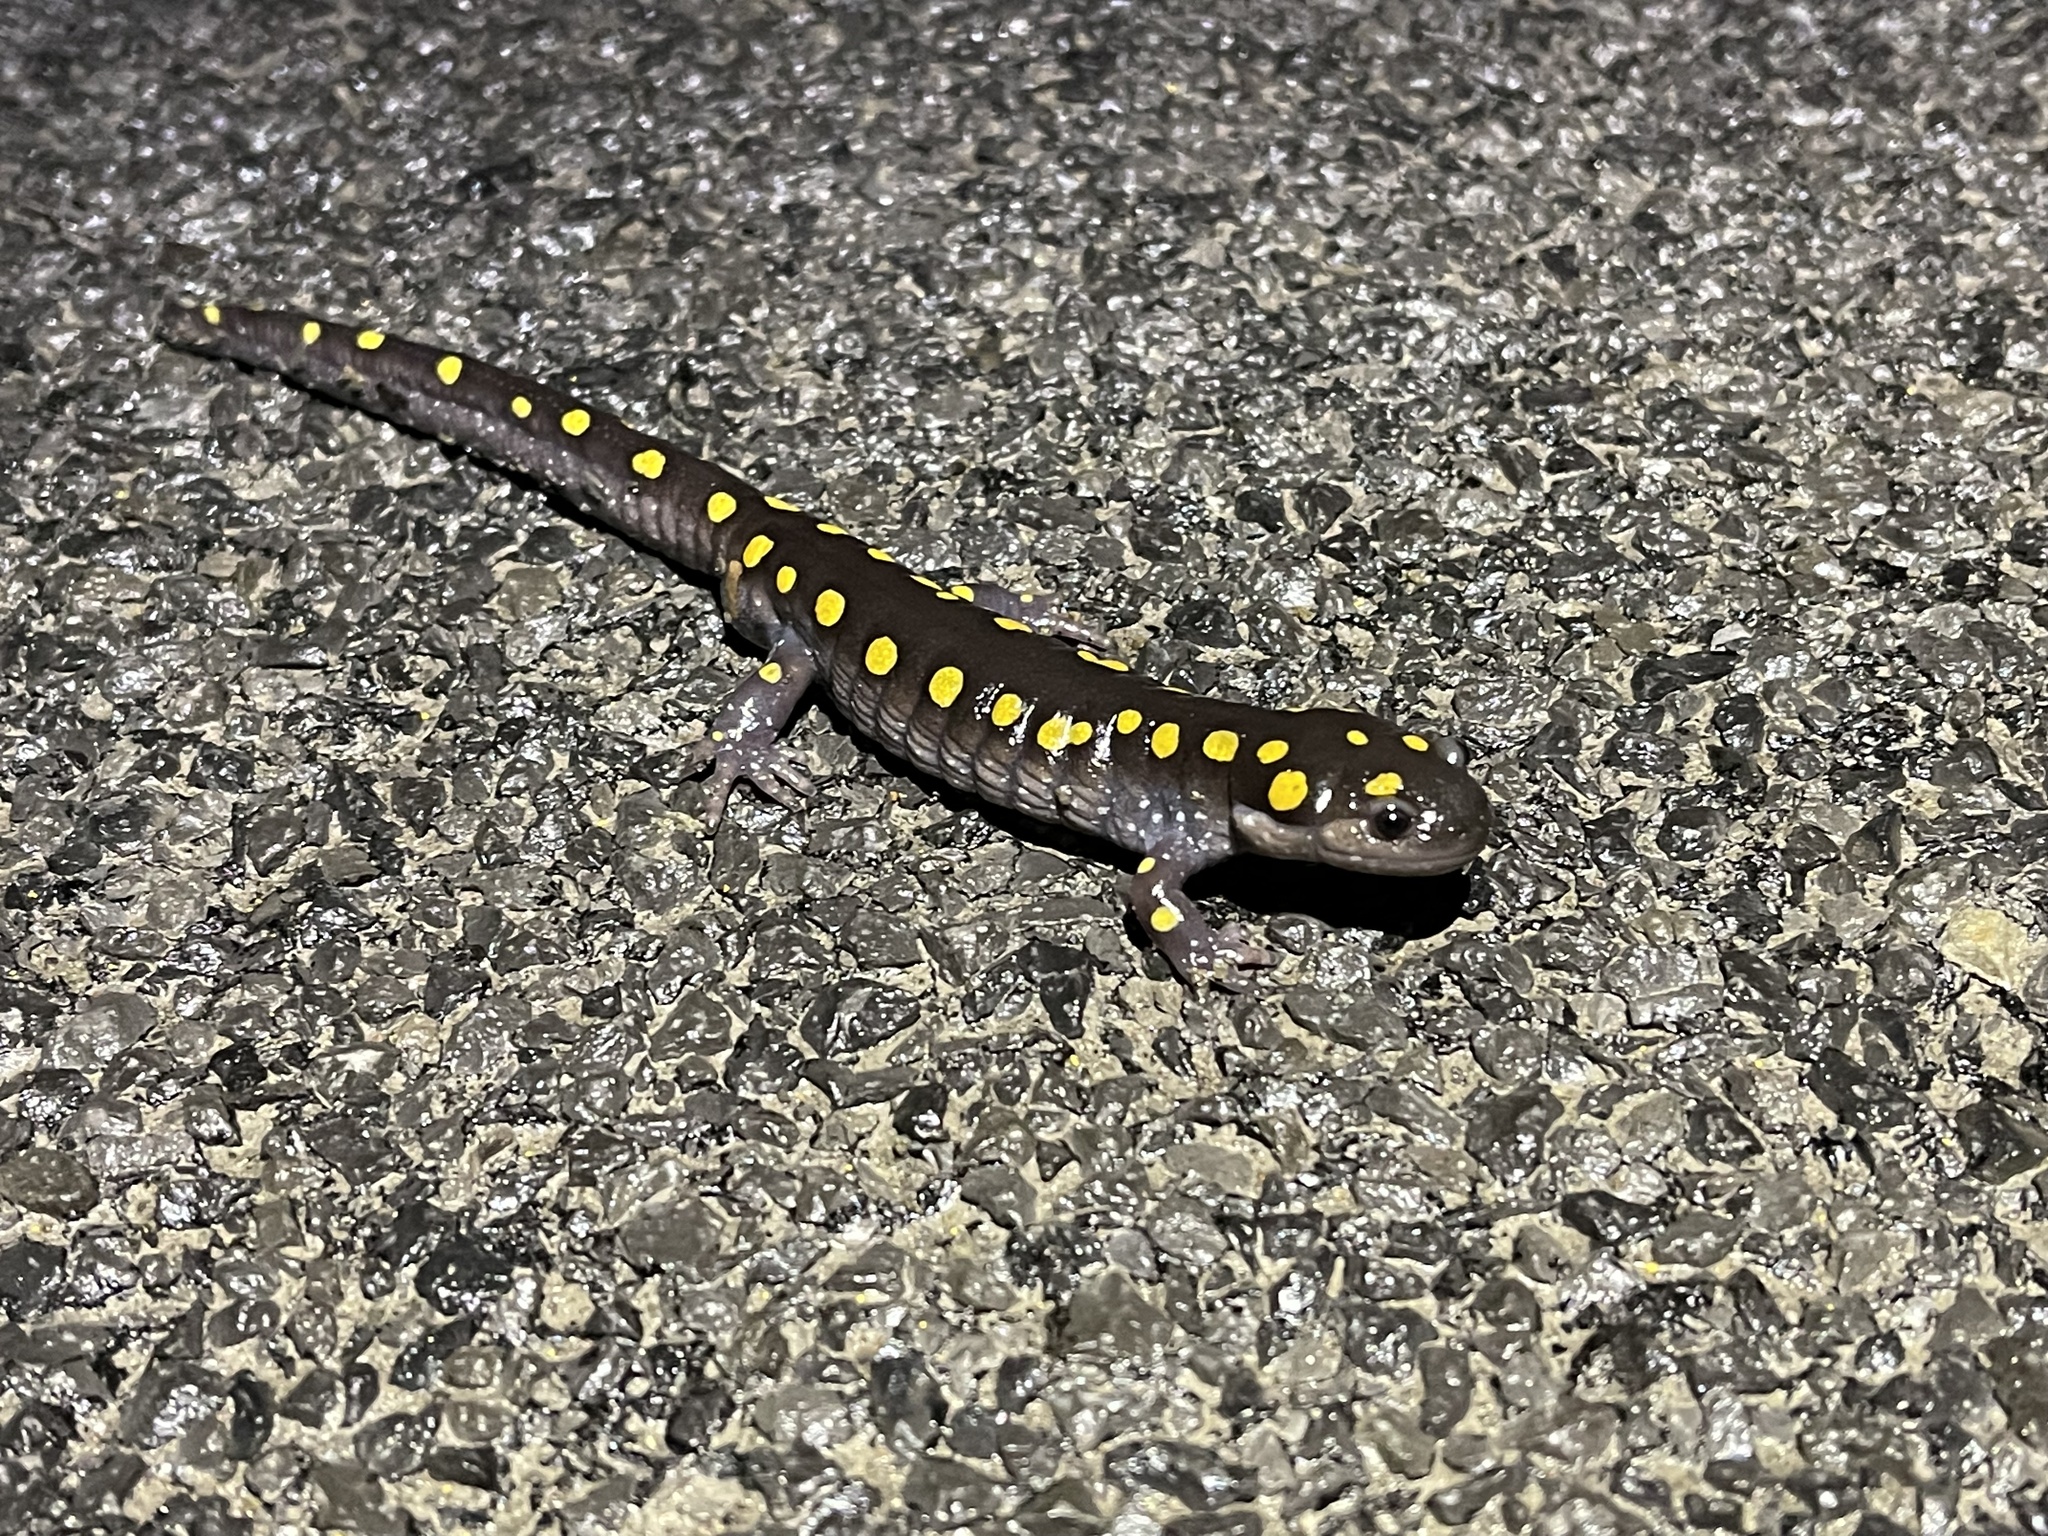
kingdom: Animalia
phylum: Chordata
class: Amphibia
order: Caudata
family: Ambystomatidae
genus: Ambystoma
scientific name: Ambystoma maculatum
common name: Spotted salamander
